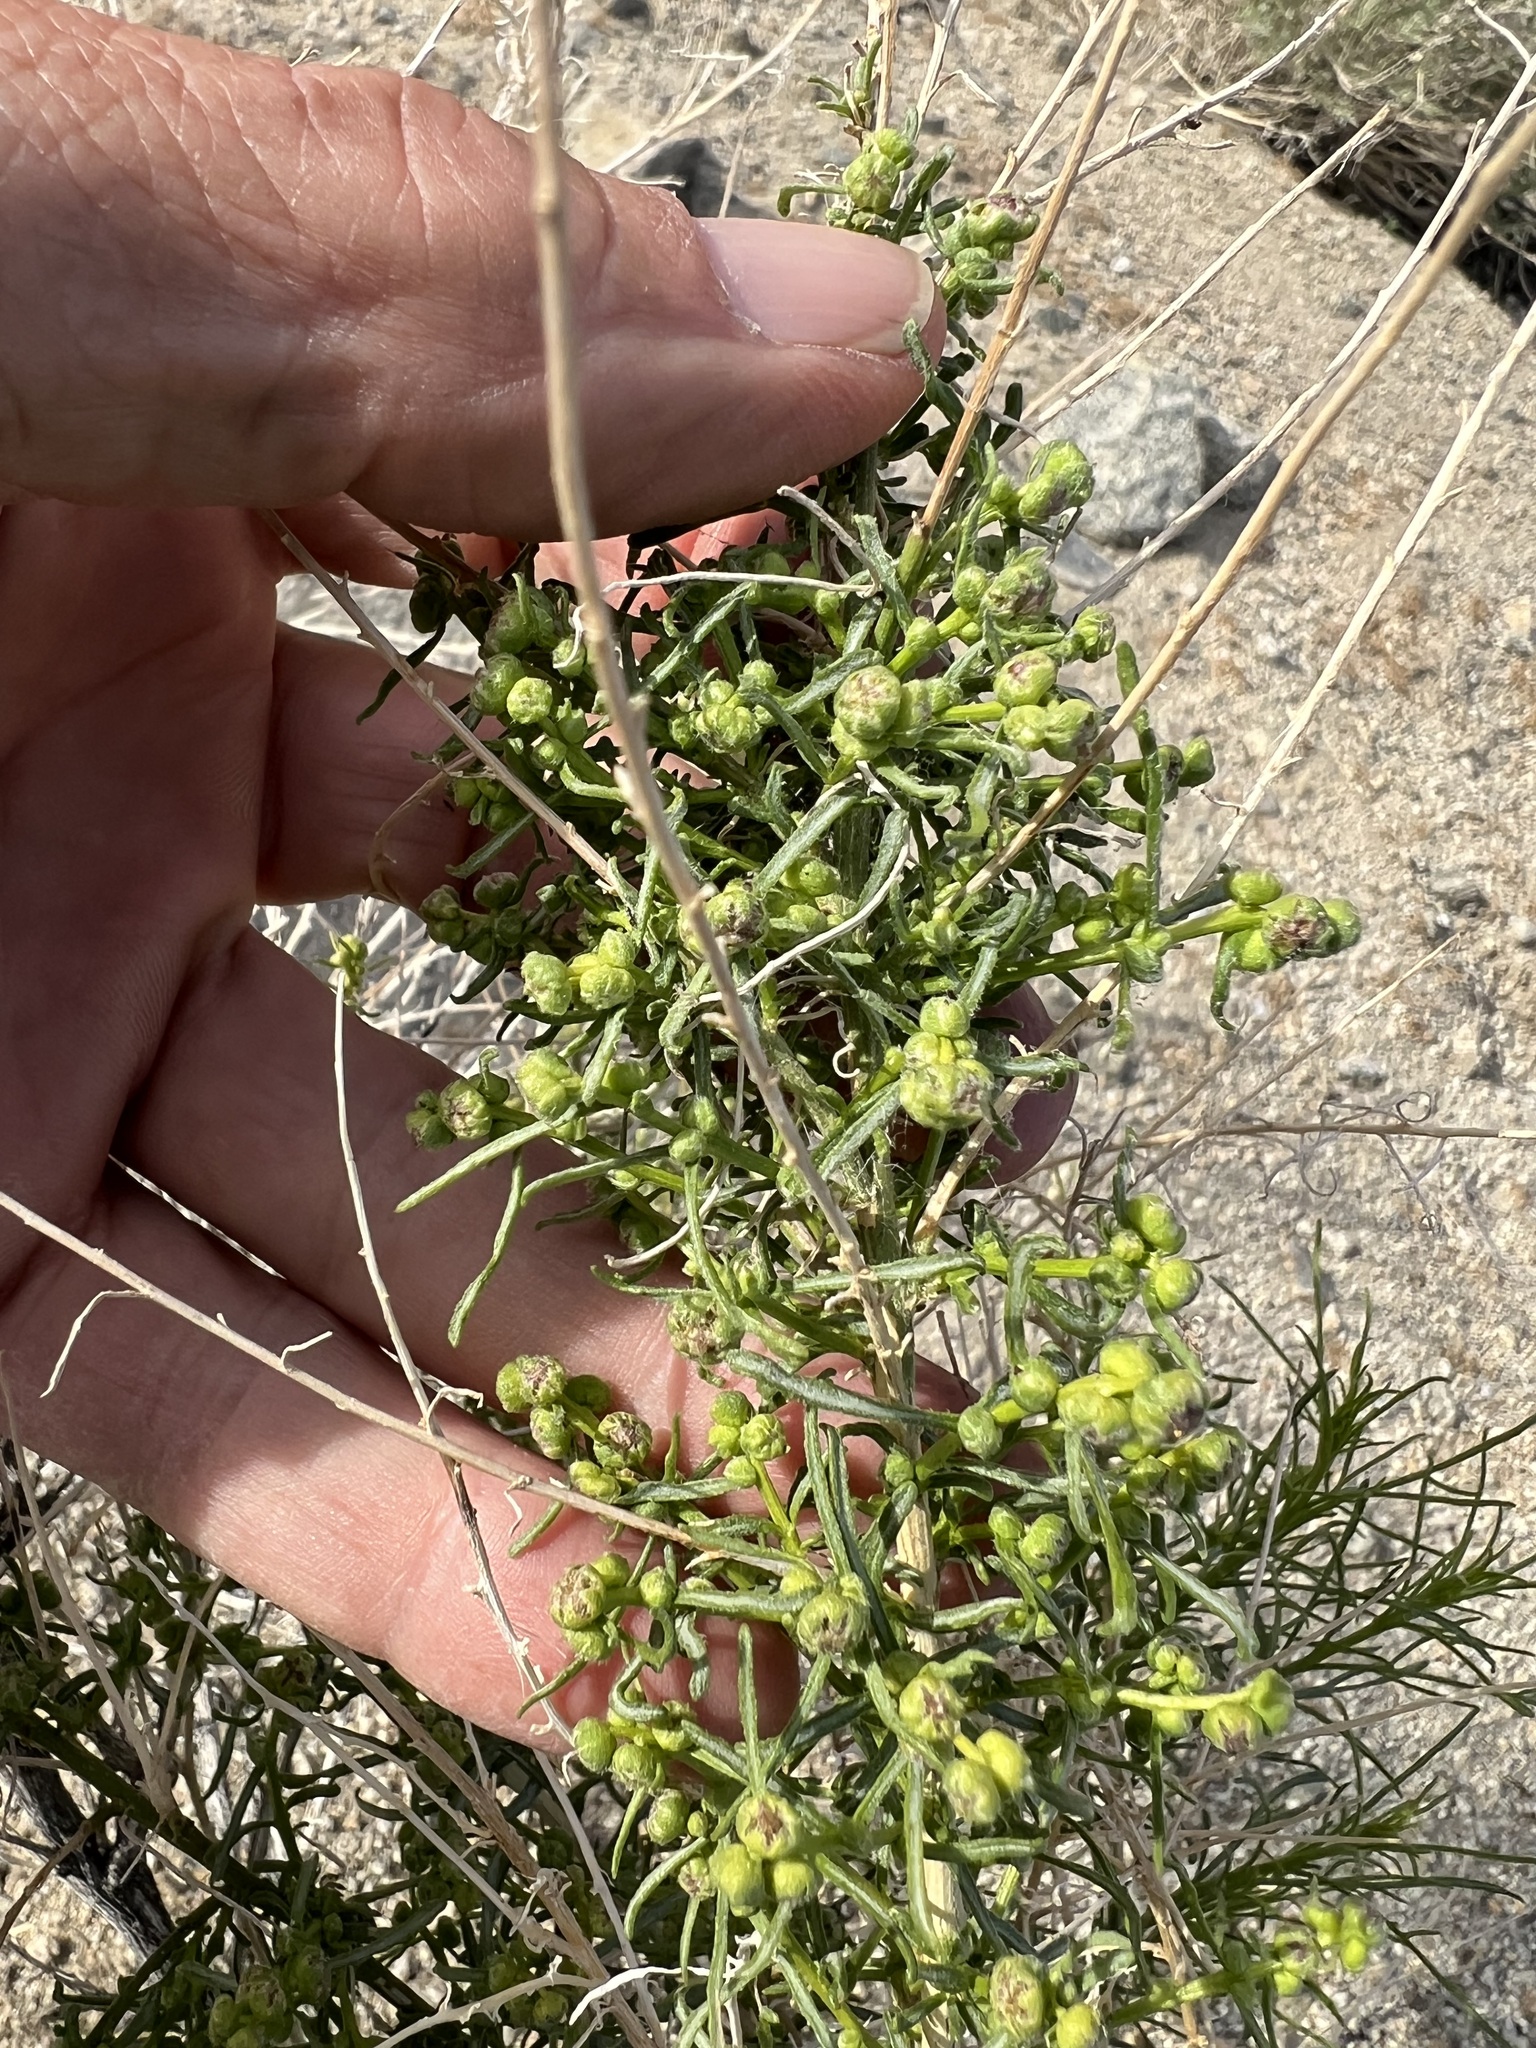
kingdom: Plantae
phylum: Tracheophyta
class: Magnoliopsida
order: Asterales
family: Asteraceae
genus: Ambrosia
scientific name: Ambrosia salsola
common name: Burrobrush
